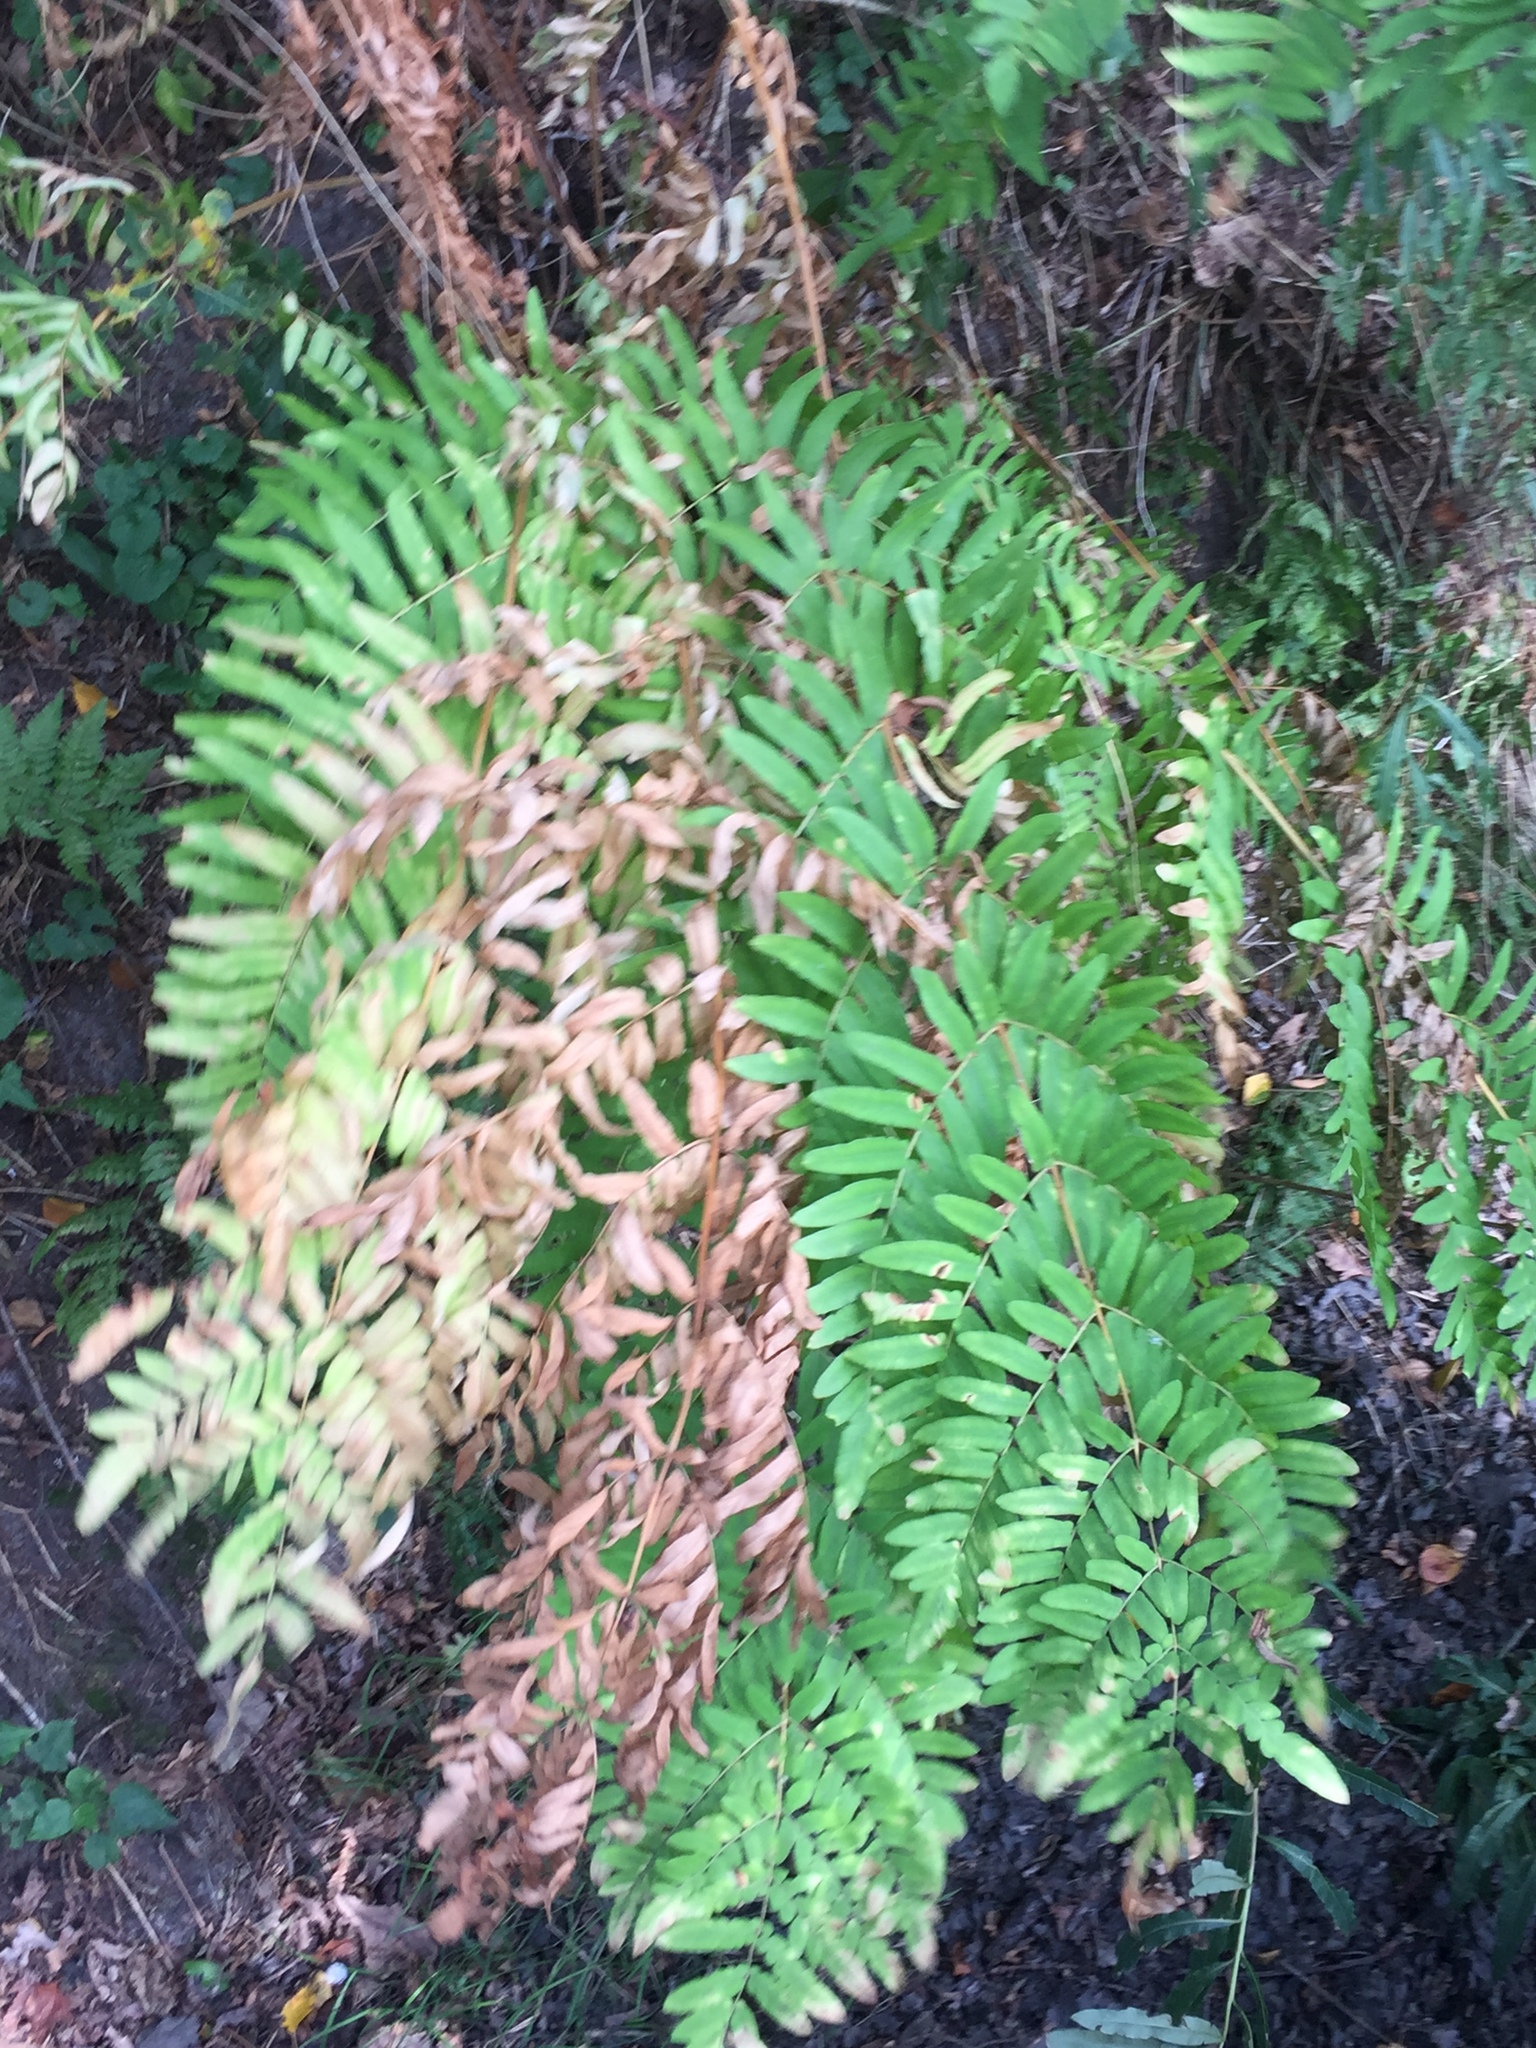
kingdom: Plantae
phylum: Tracheophyta
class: Polypodiopsida
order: Osmundales
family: Osmundaceae
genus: Osmunda
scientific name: Osmunda regalis
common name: Royal fern
